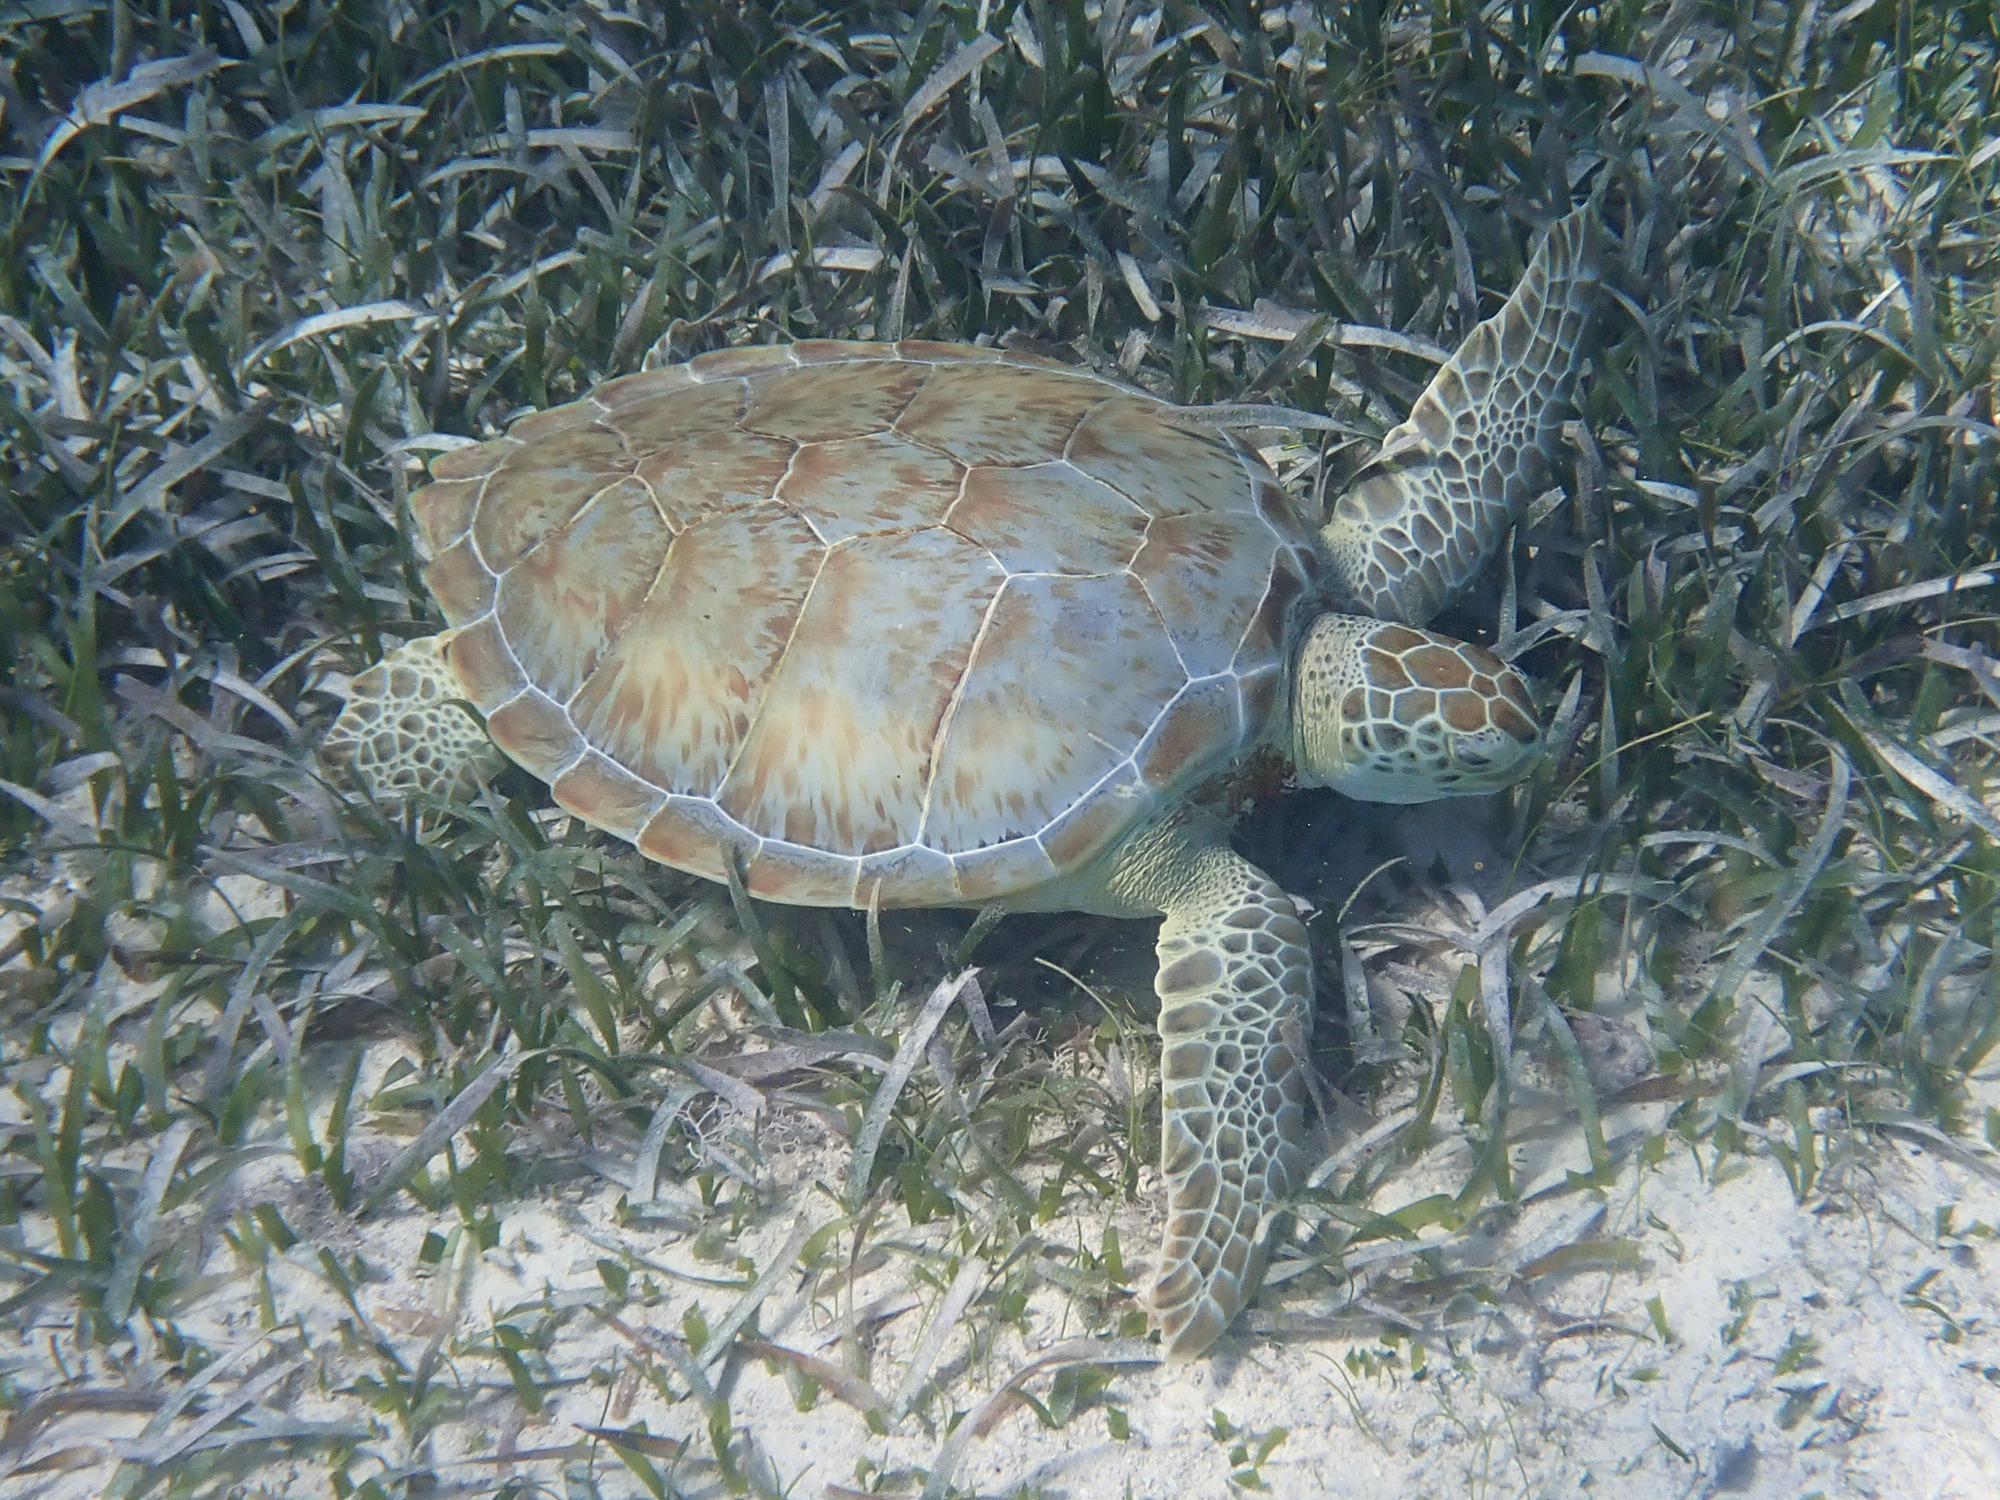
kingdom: Animalia
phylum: Chordata
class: Testudines
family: Cheloniidae
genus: Chelonia
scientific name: Chelonia mydas
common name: Green turtle
